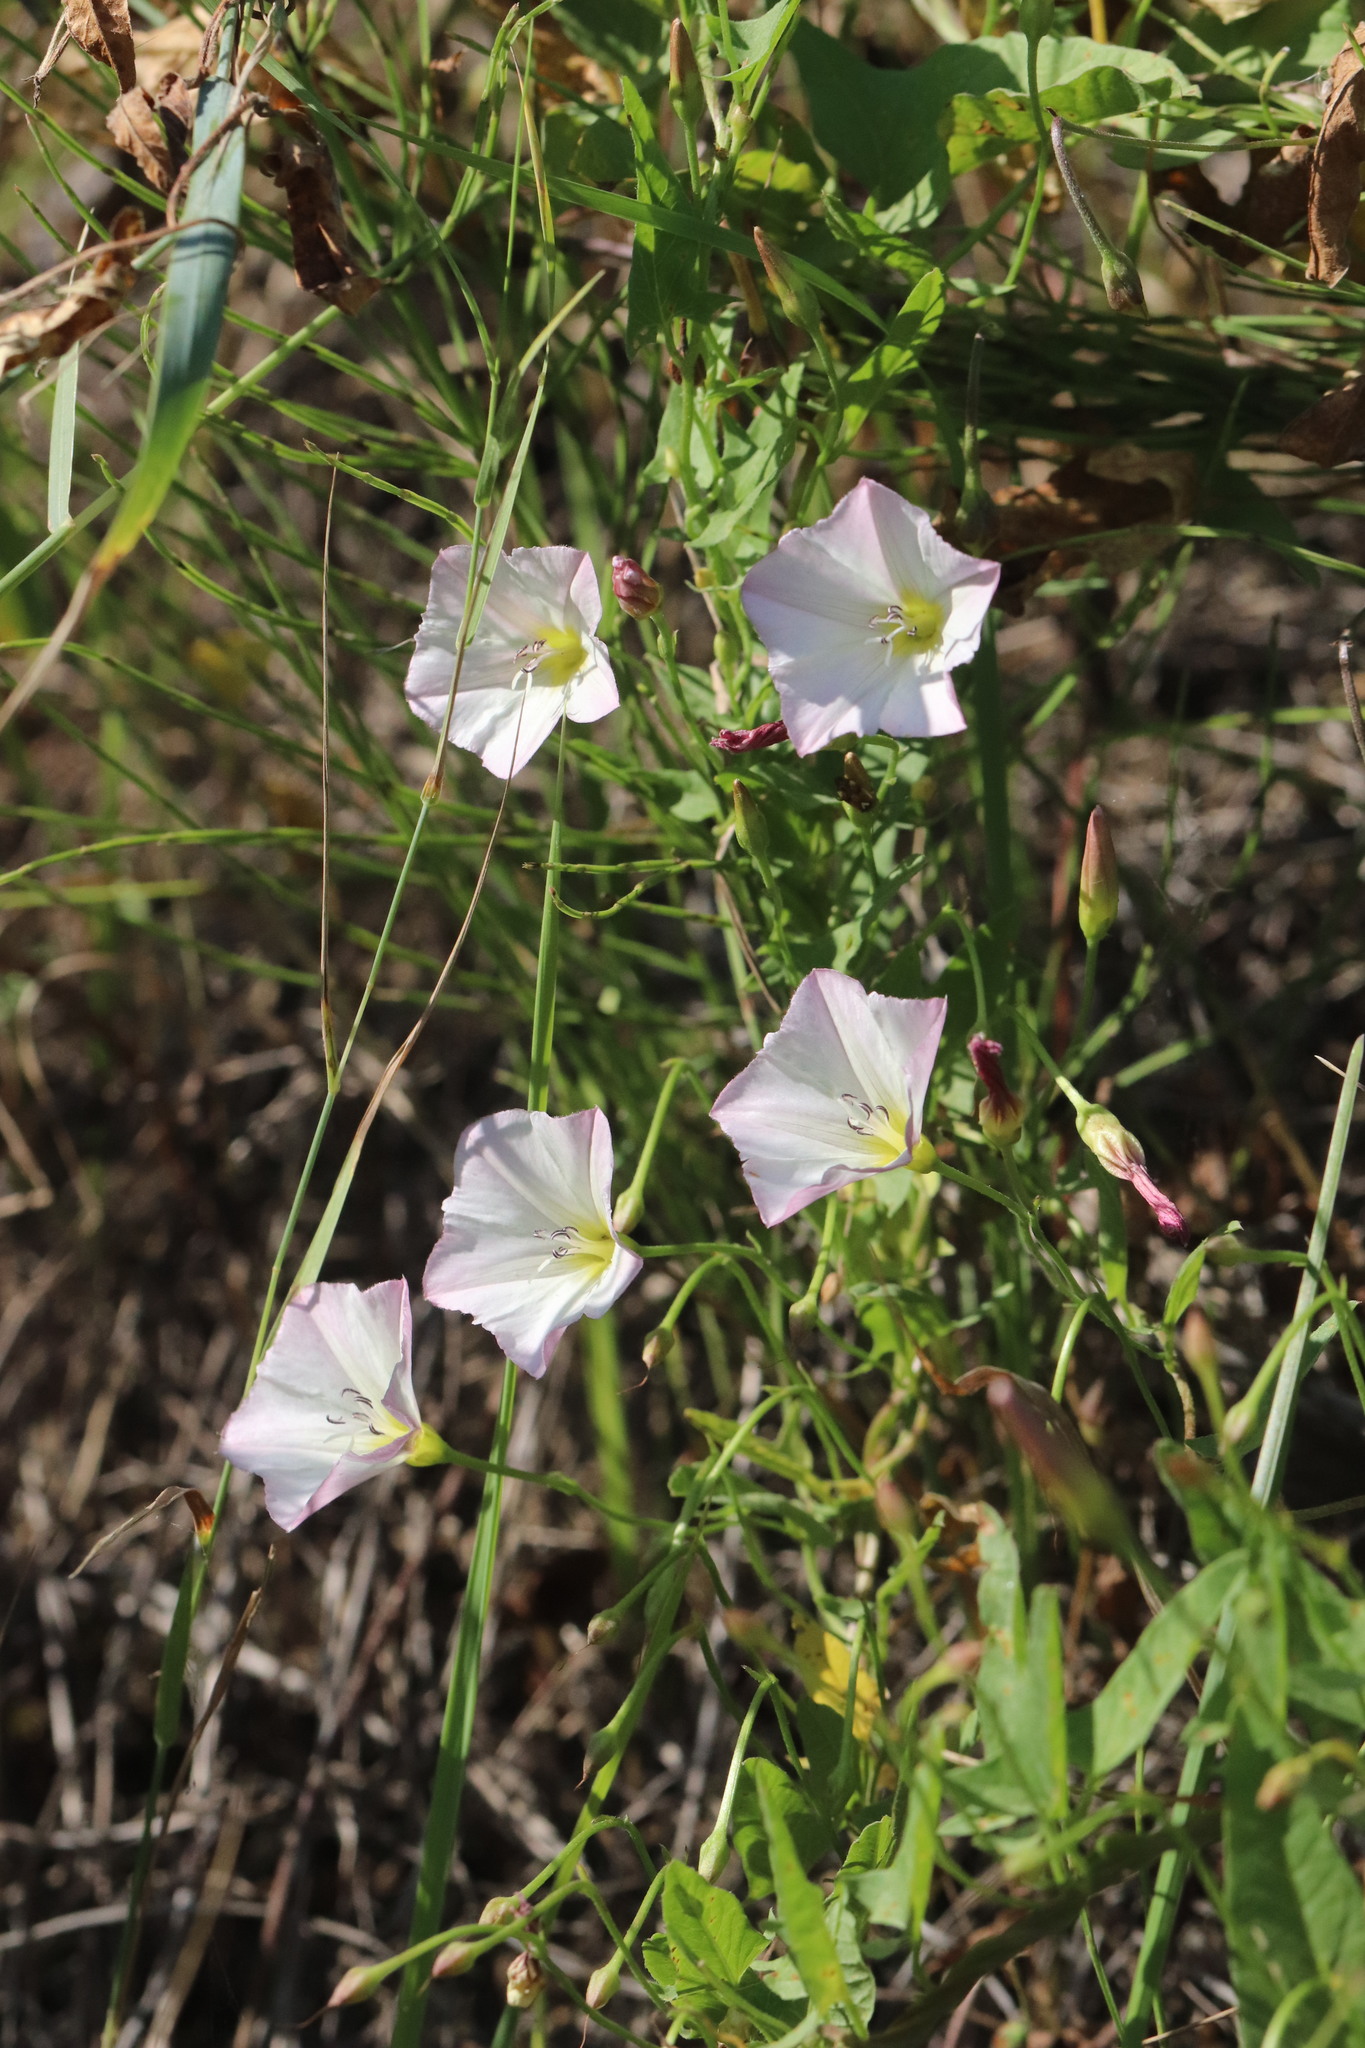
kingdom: Plantae
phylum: Tracheophyta
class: Magnoliopsida
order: Solanales
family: Convolvulaceae
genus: Convolvulus
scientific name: Convolvulus arvensis
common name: Field bindweed
